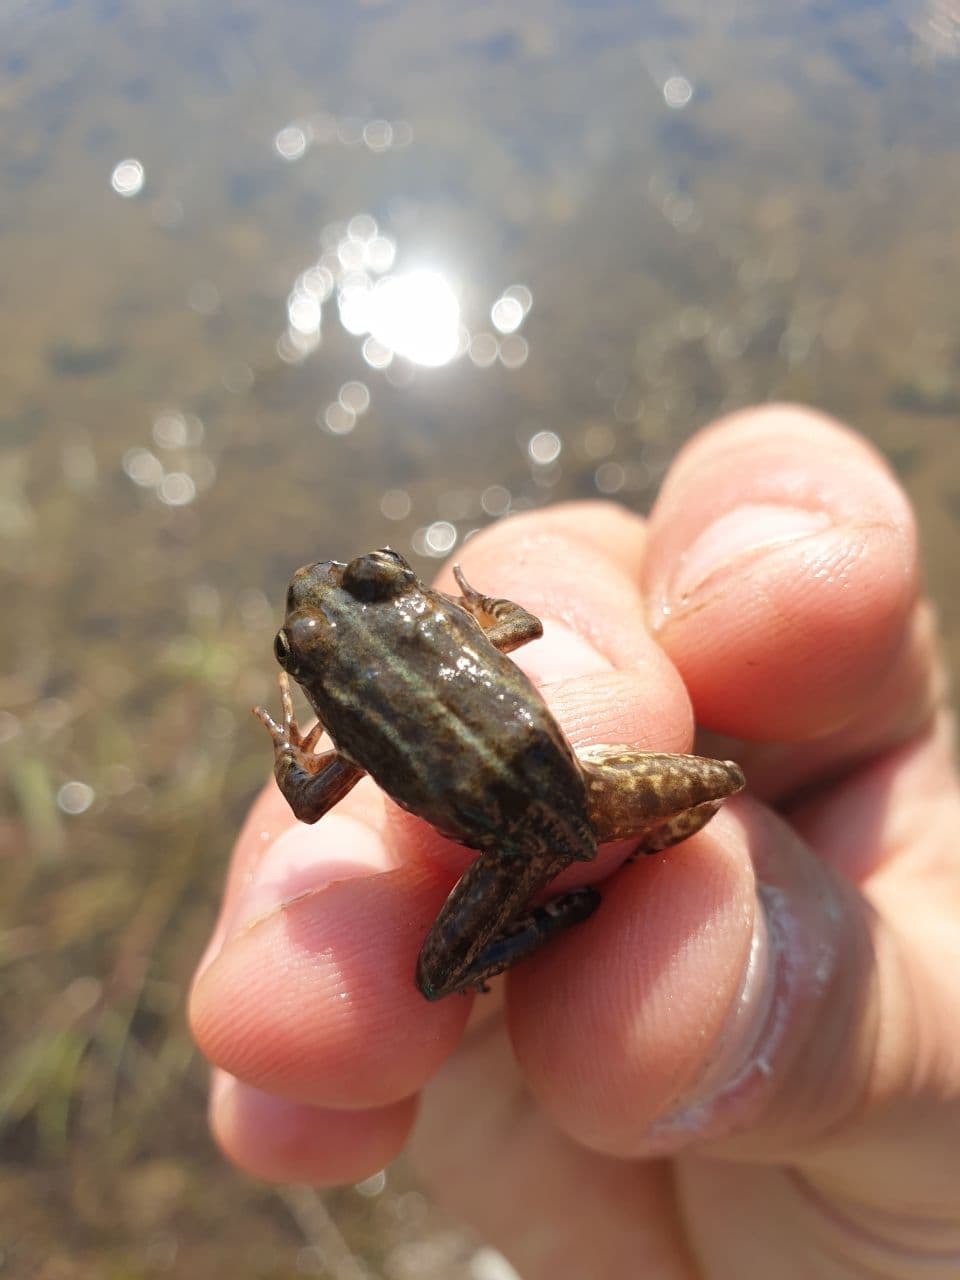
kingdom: Animalia
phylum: Chordata
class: Amphibia
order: Anura
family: Ranidae
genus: Pelophylax
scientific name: Pelophylax
